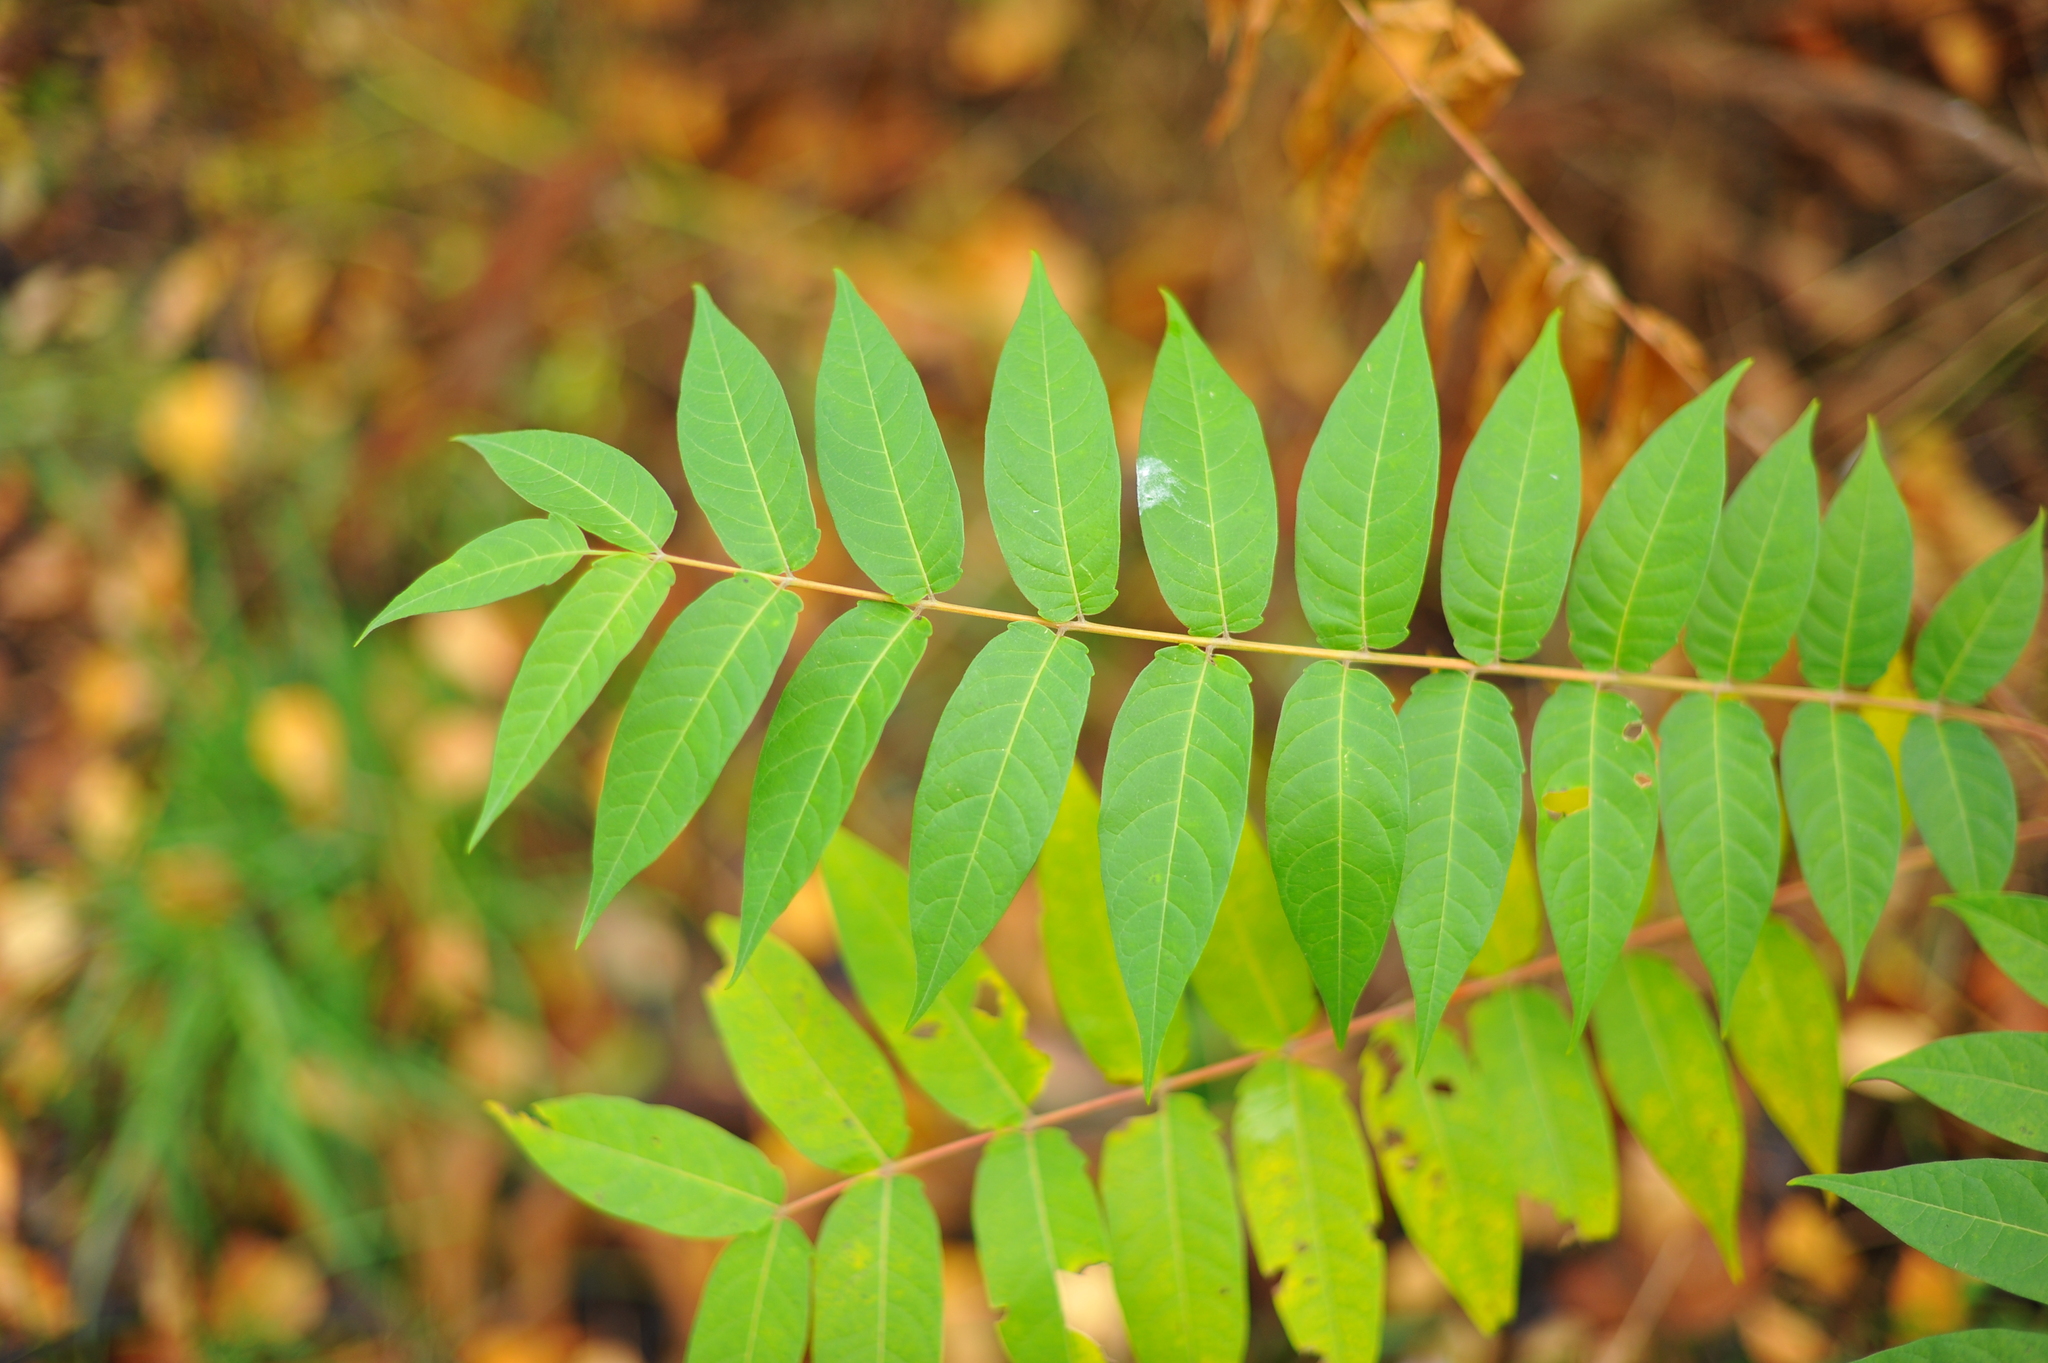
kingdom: Plantae
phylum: Tracheophyta
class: Magnoliopsida
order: Sapindales
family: Simaroubaceae
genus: Ailanthus
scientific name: Ailanthus altissima
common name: Tree-of-heaven
